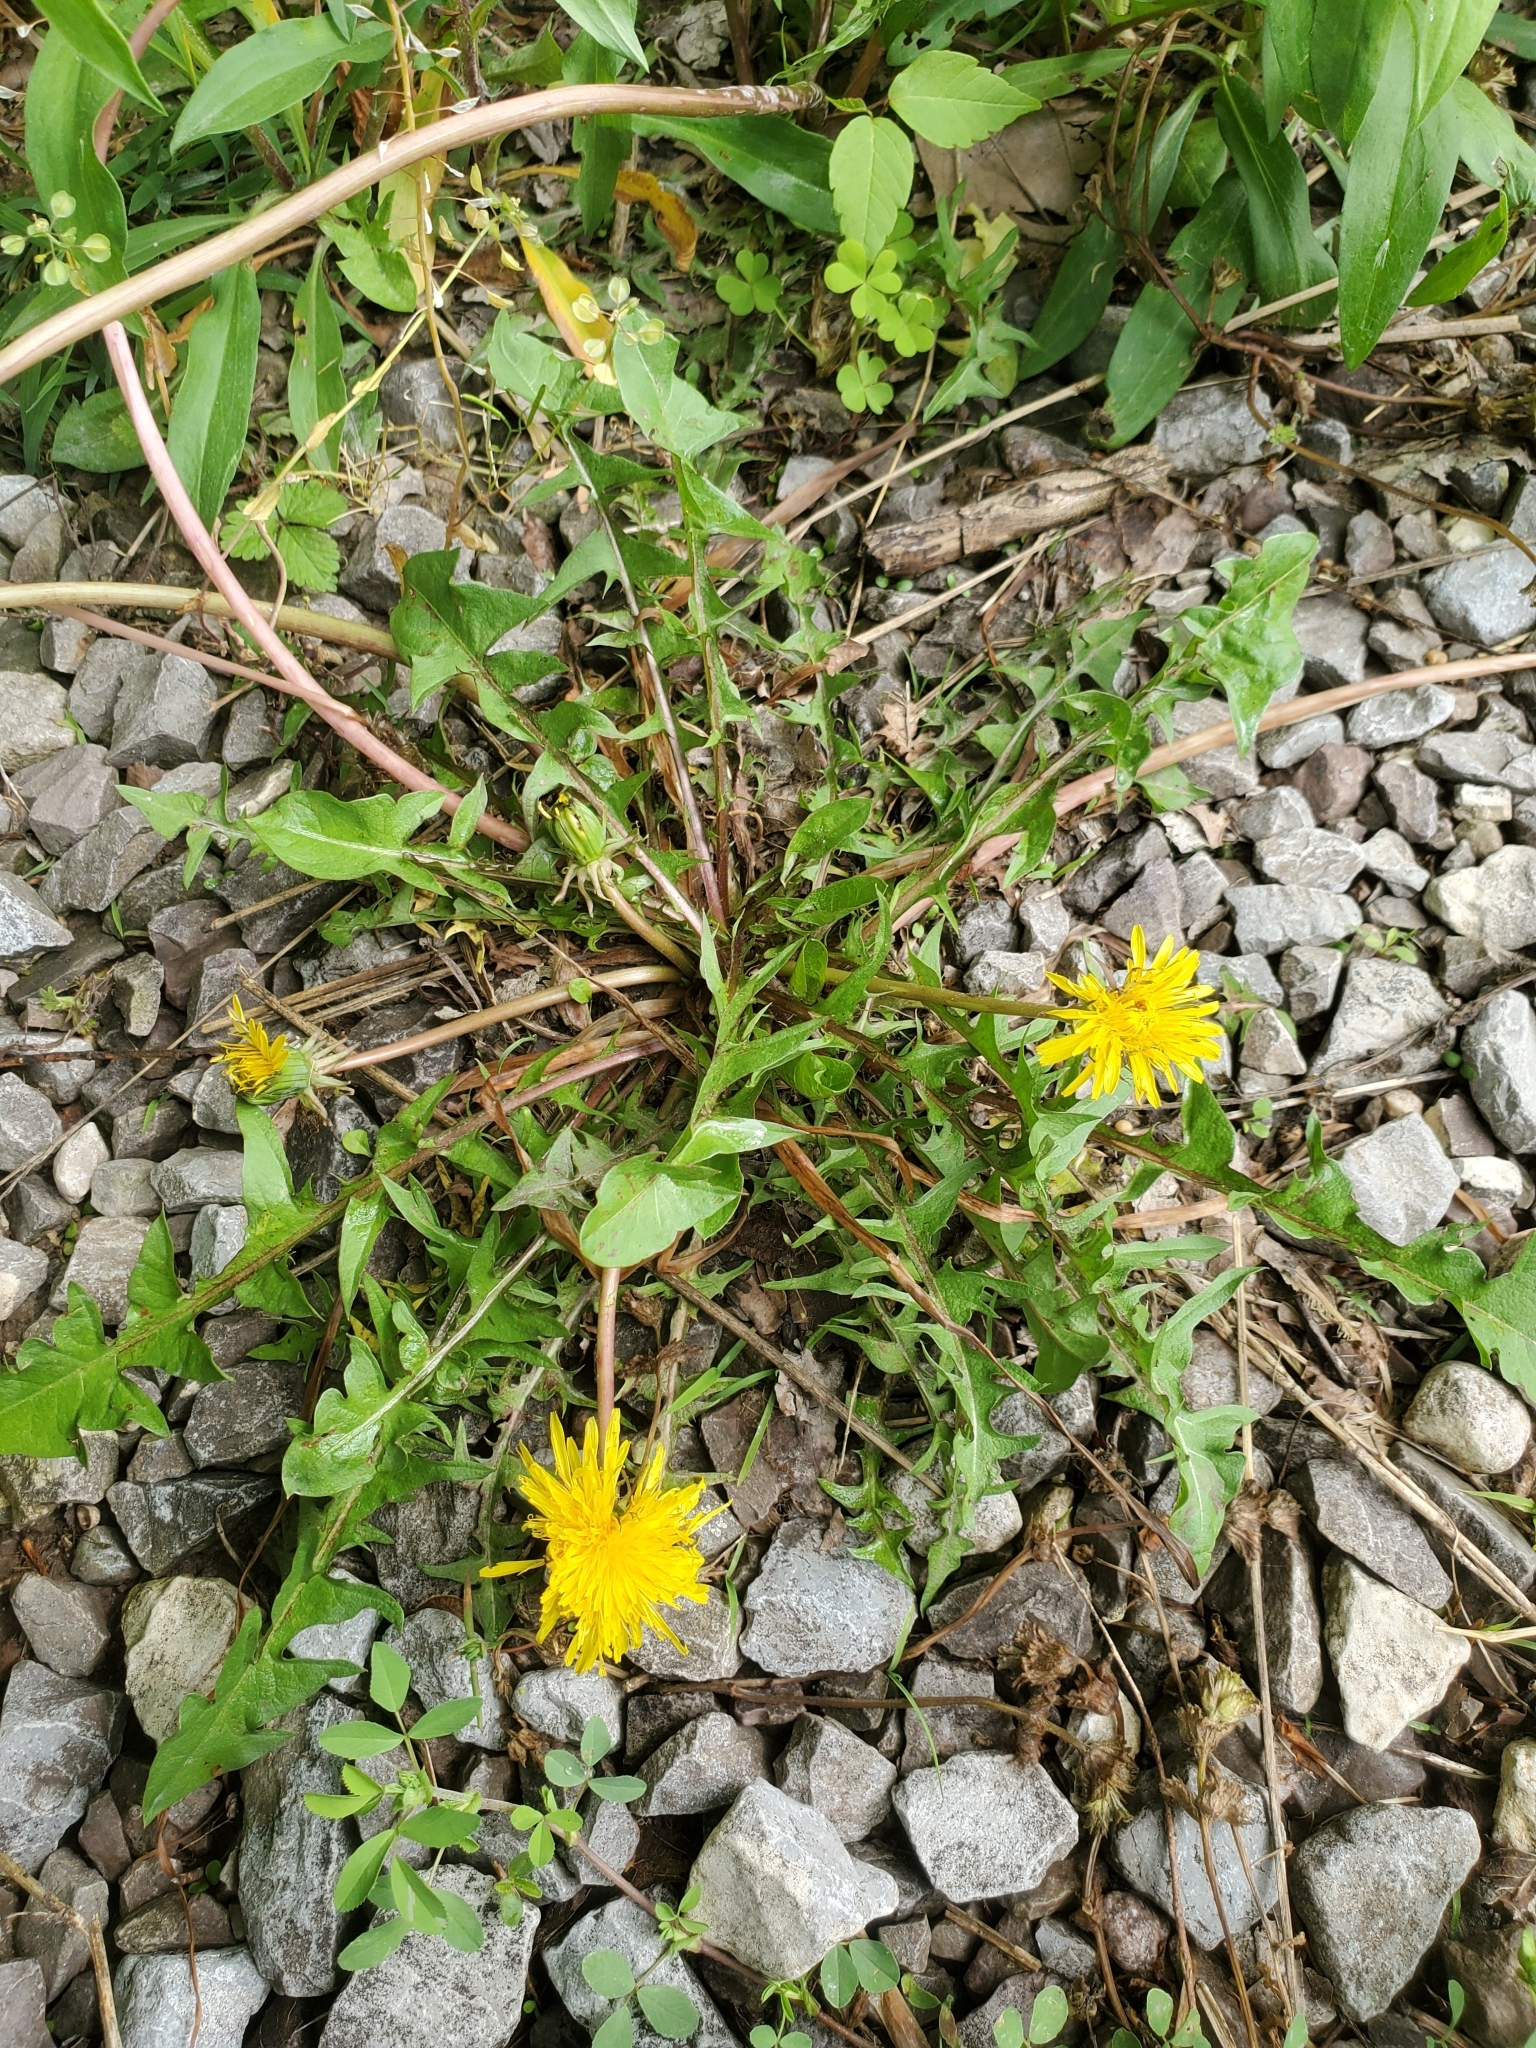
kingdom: Plantae
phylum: Tracheophyta
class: Magnoliopsida
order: Asterales
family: Asteraceae
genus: Taraxacum
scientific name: Taraxacum officinale
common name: Common dandelion
